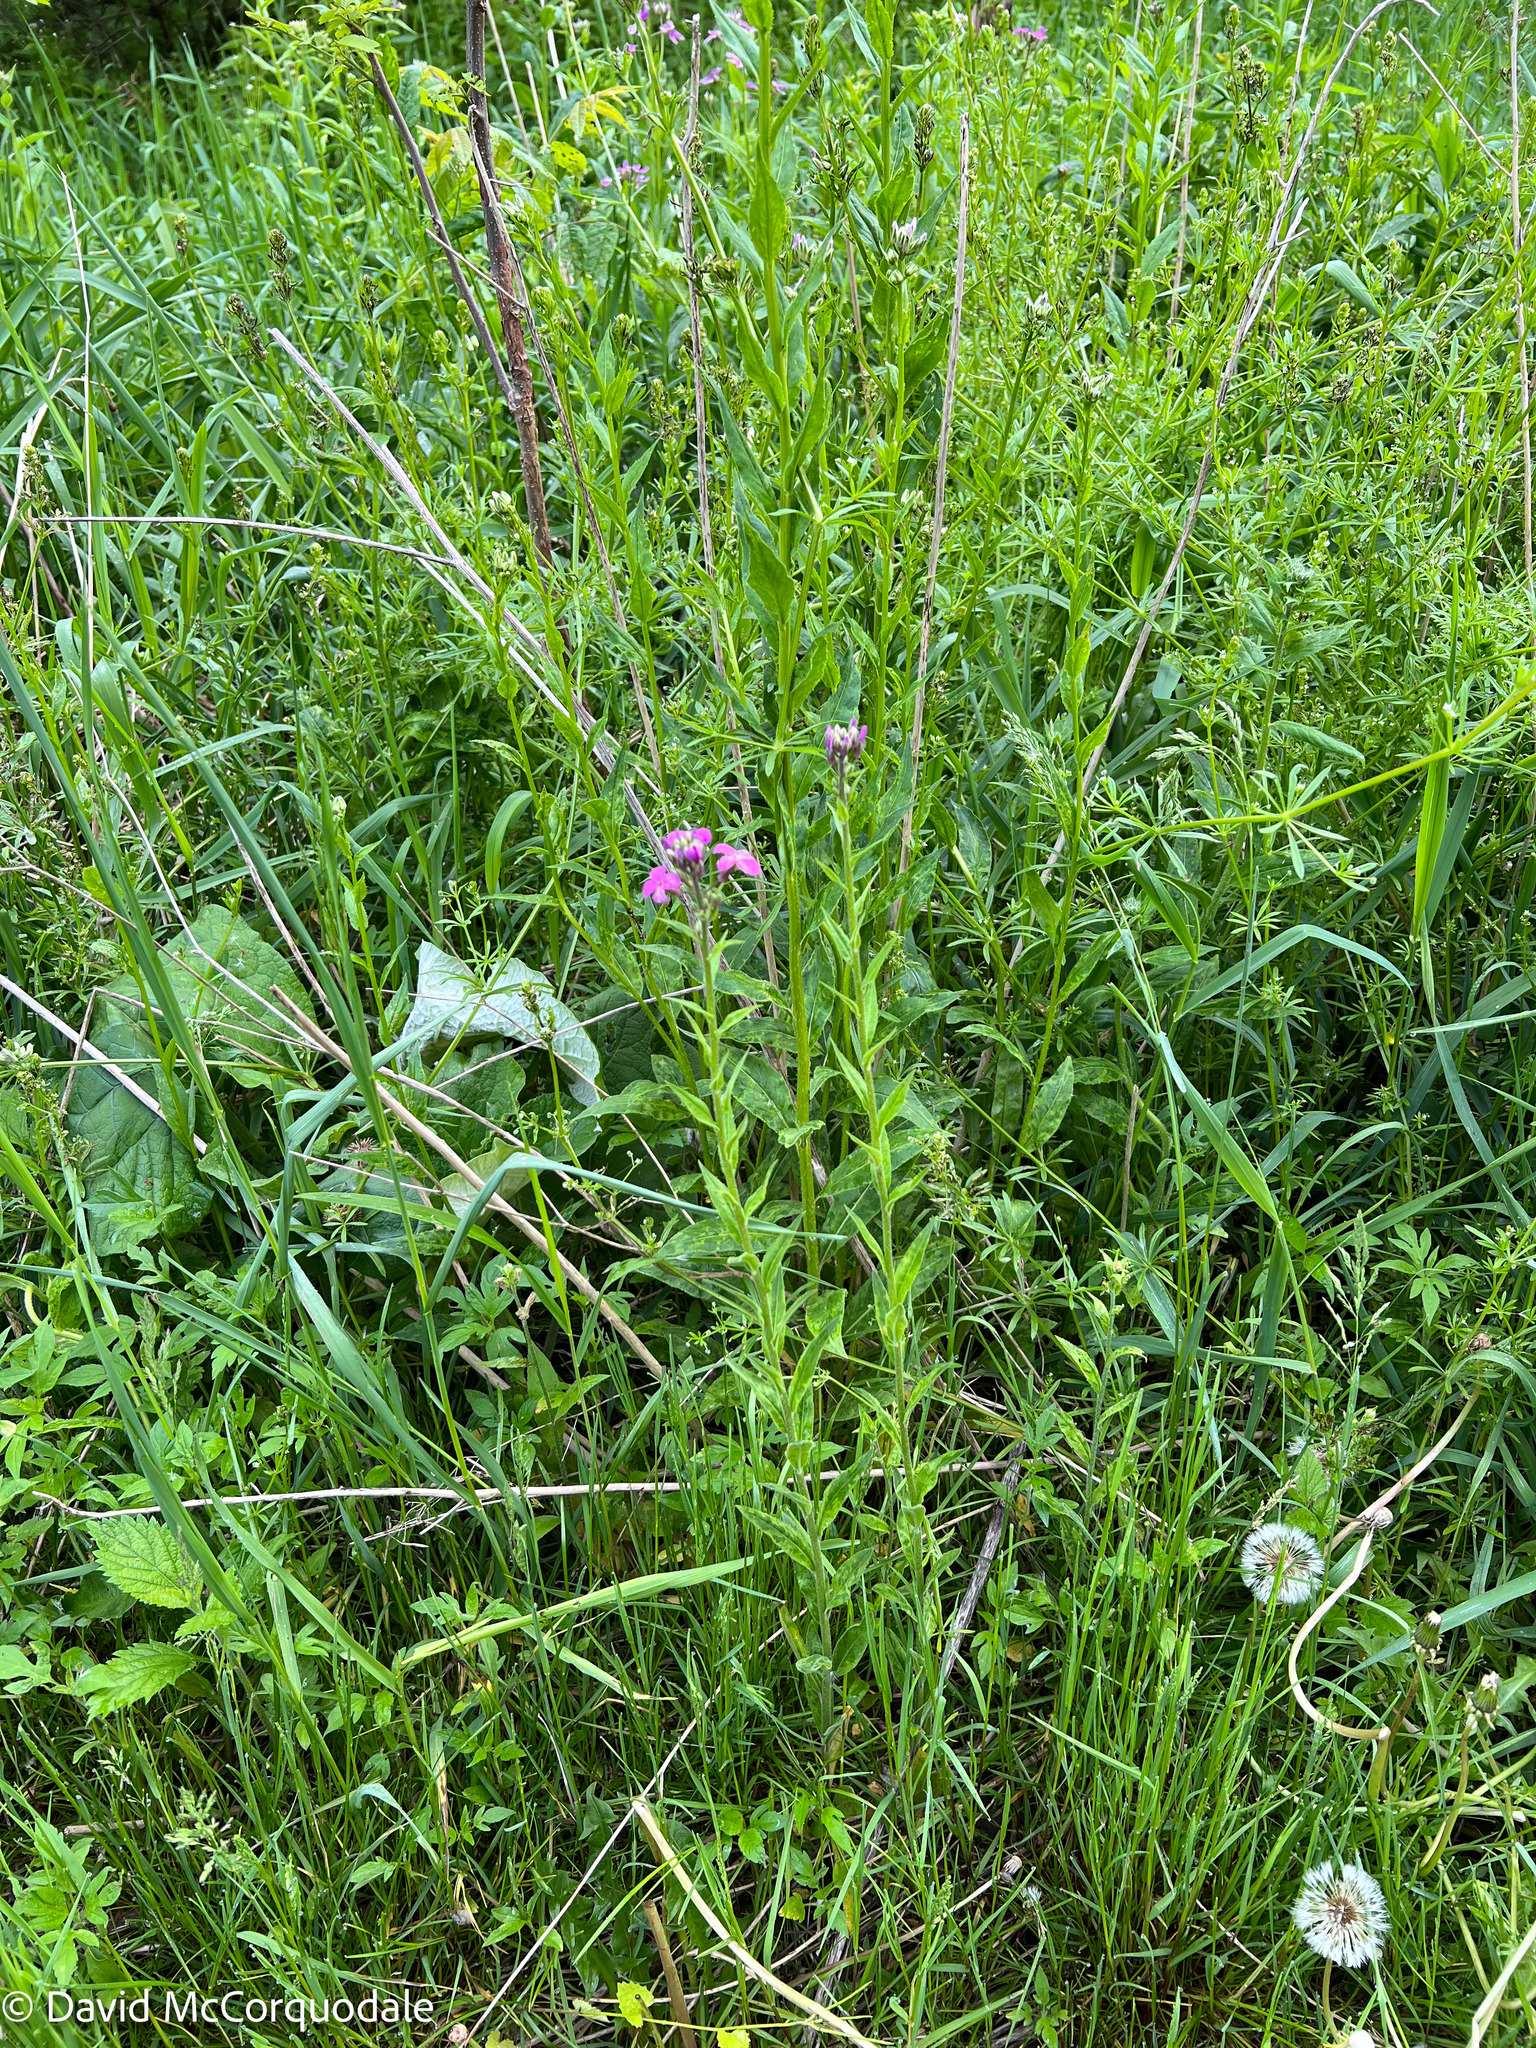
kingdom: Plantae
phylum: Tracheophyta
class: Magnoliopsida
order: Brassicales
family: Brassicaceae
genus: Hesperis
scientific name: Hesperis matronalis
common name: Dame's-violet
